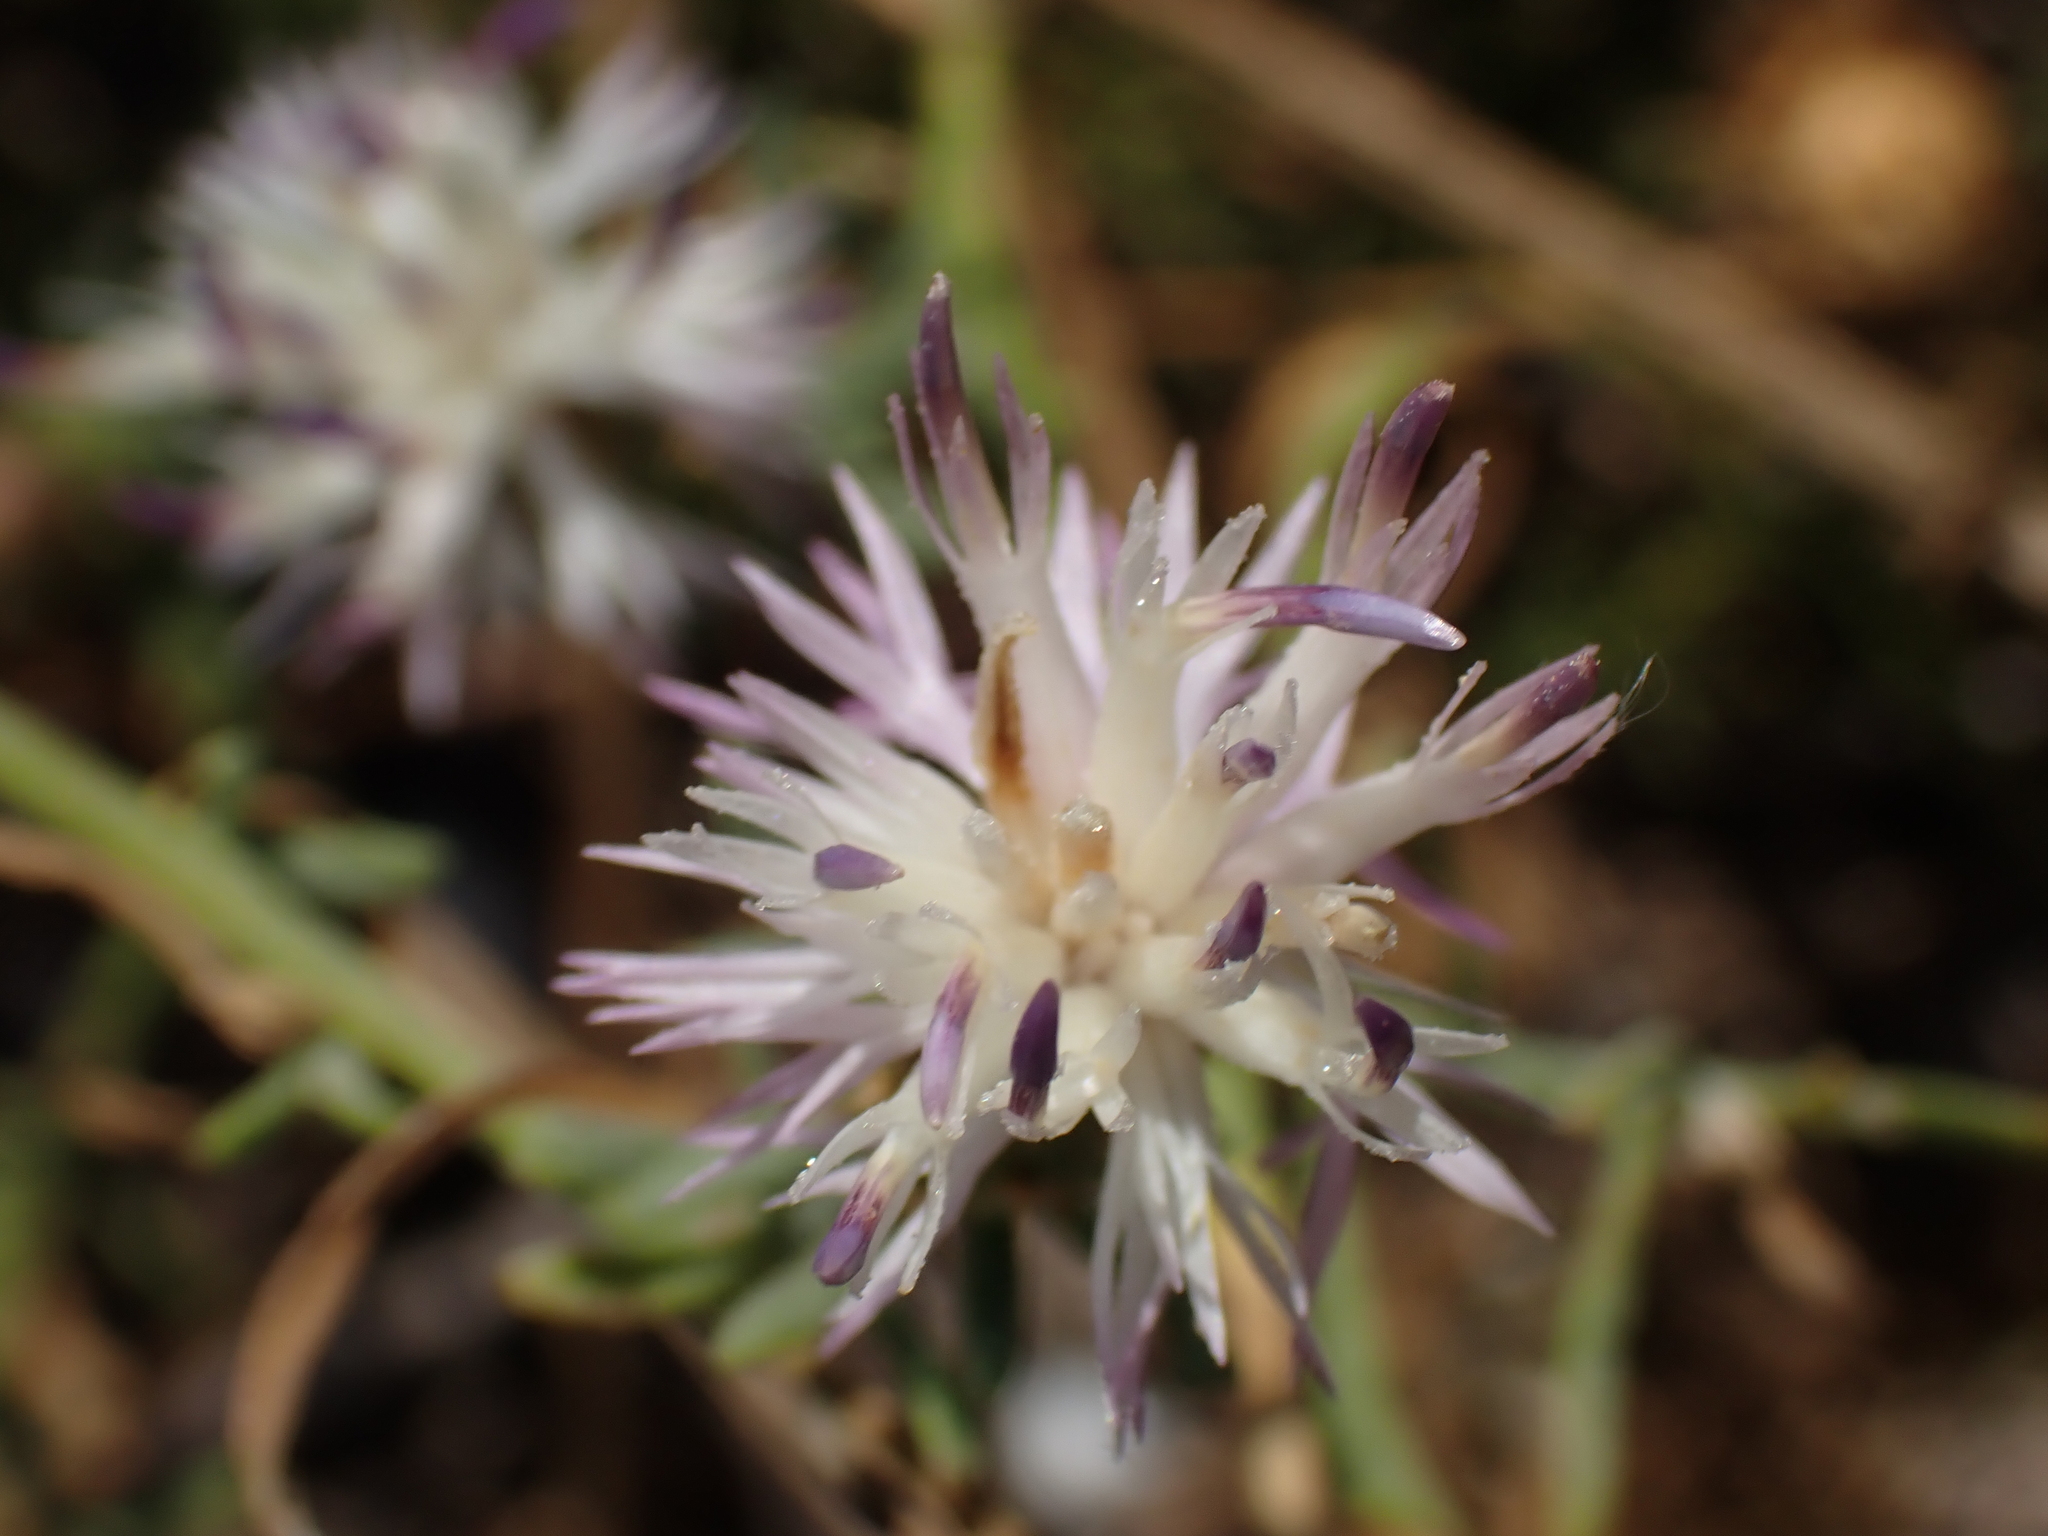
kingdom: Plantae
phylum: Tracheophyta
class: Magnoliopsida
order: Asterales
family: Asteraceae
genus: Centaurea
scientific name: Centaurea aspera
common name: Rough star-thistle
